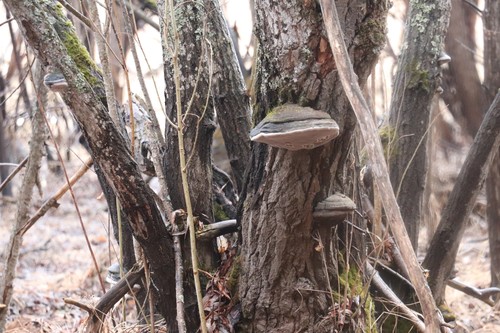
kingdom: Fungi
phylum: Basidiomycota
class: Agaricomycetes
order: Hymenochaetales
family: Hymenochaetaceae
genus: Phellinus
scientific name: Phellinus igniarius
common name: Willow bracket
